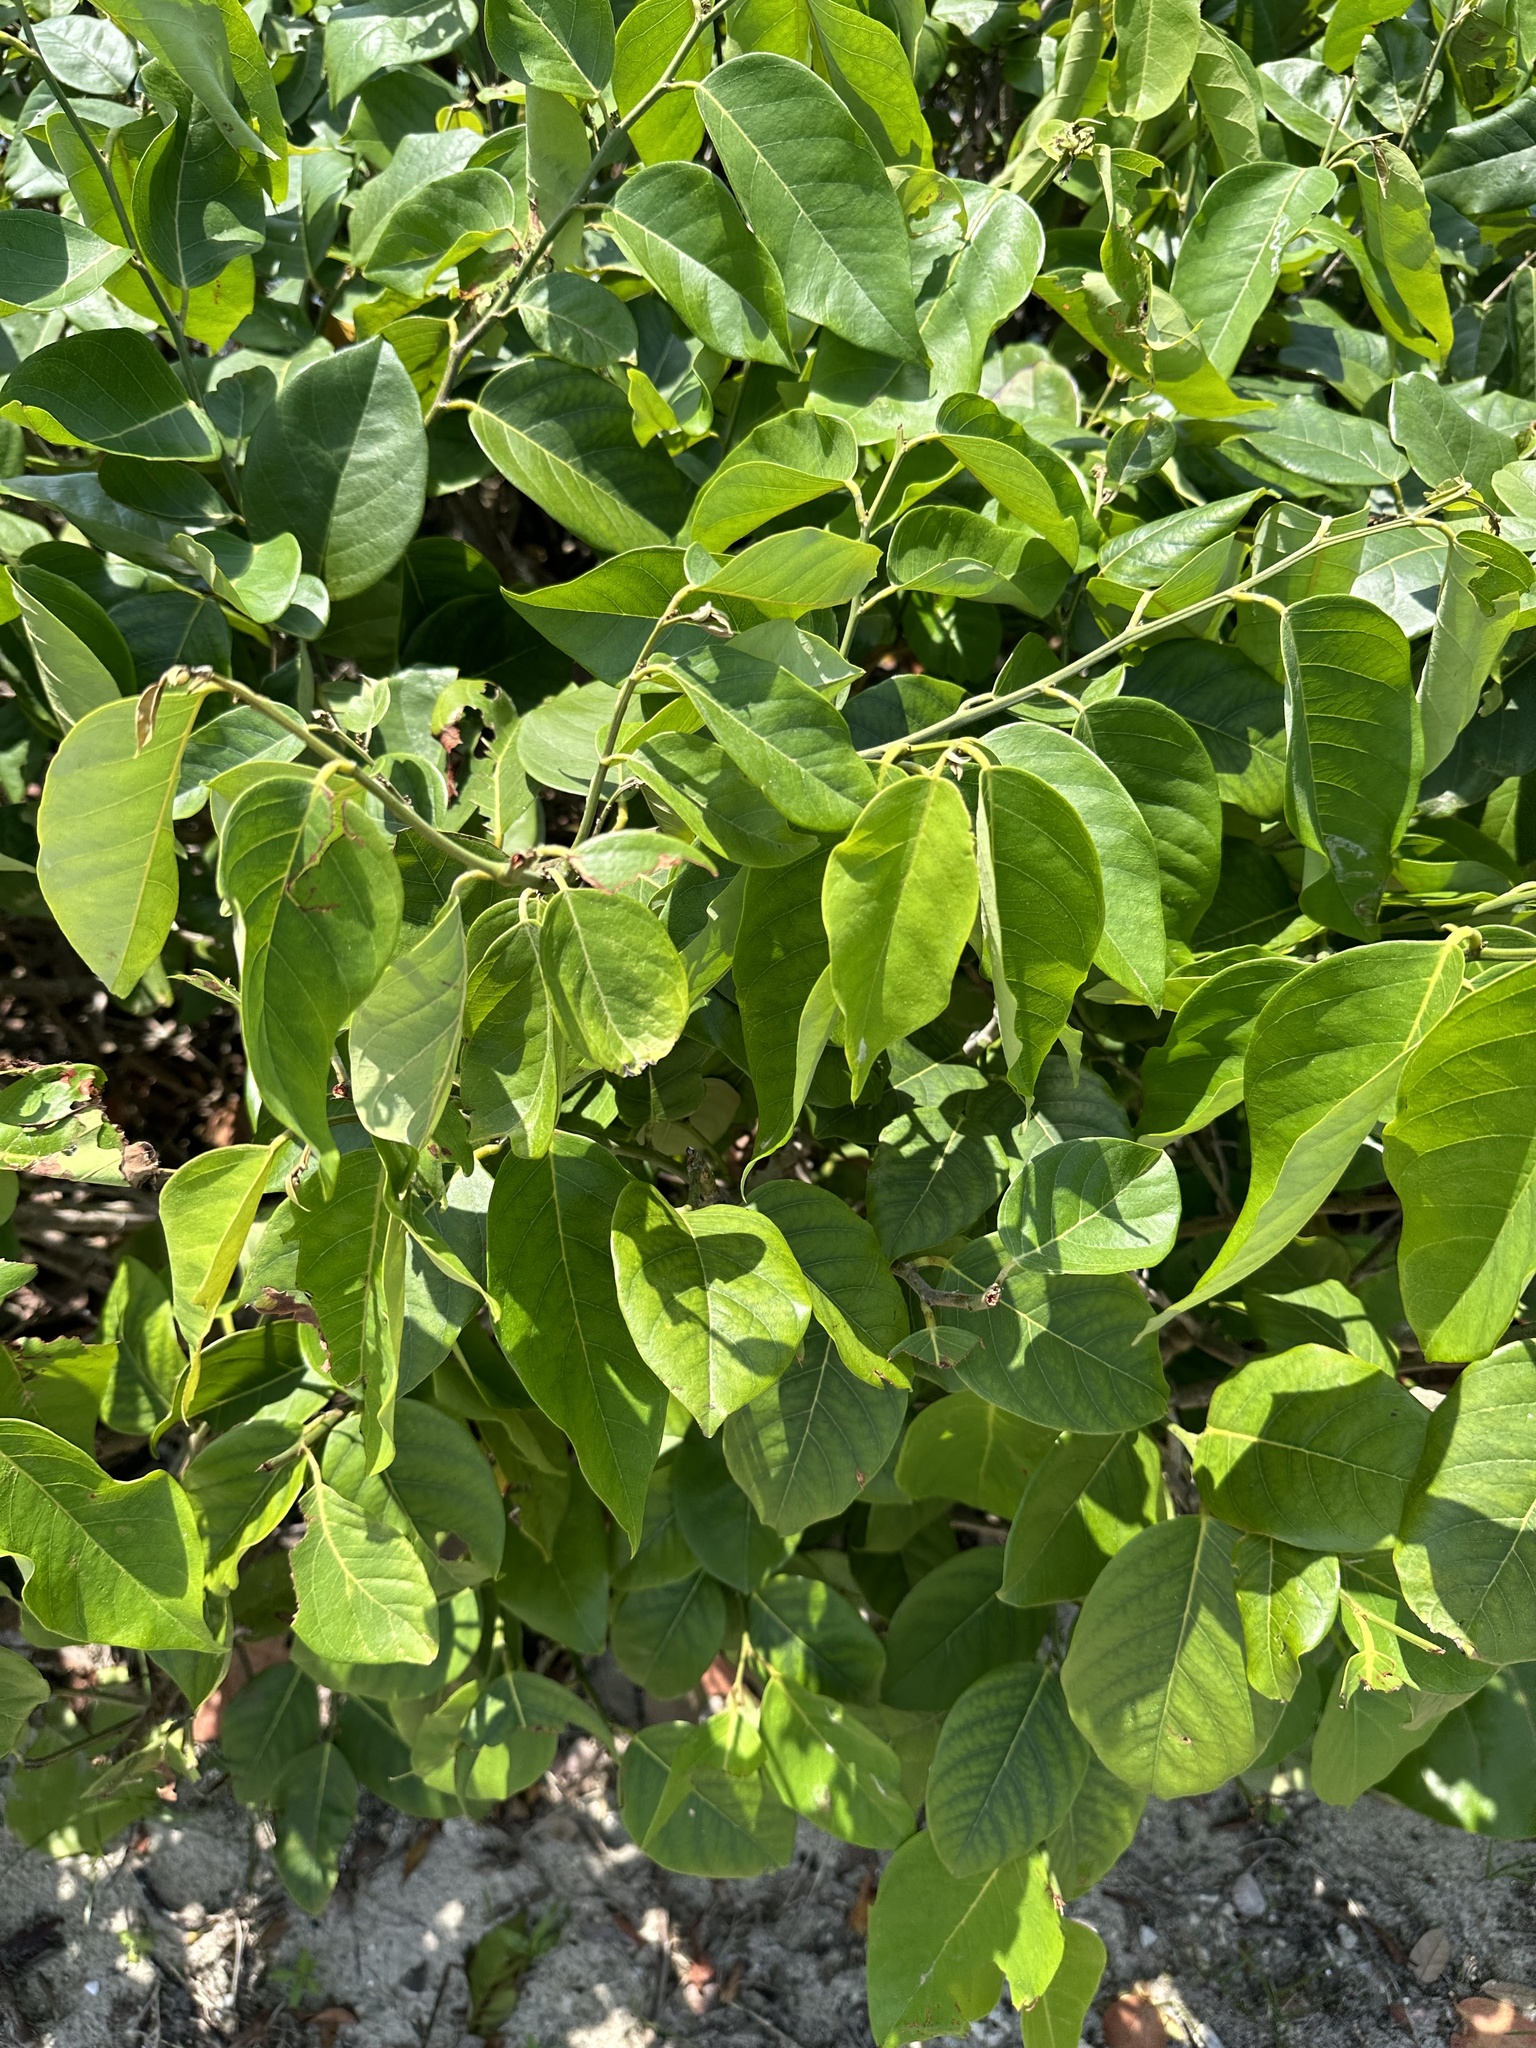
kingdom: Plantae
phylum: Tracheophyta
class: Magnoliopsida
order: Fabales
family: Fabaceae
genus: Dalbergia
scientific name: Dalbergia ecastaphyllum
